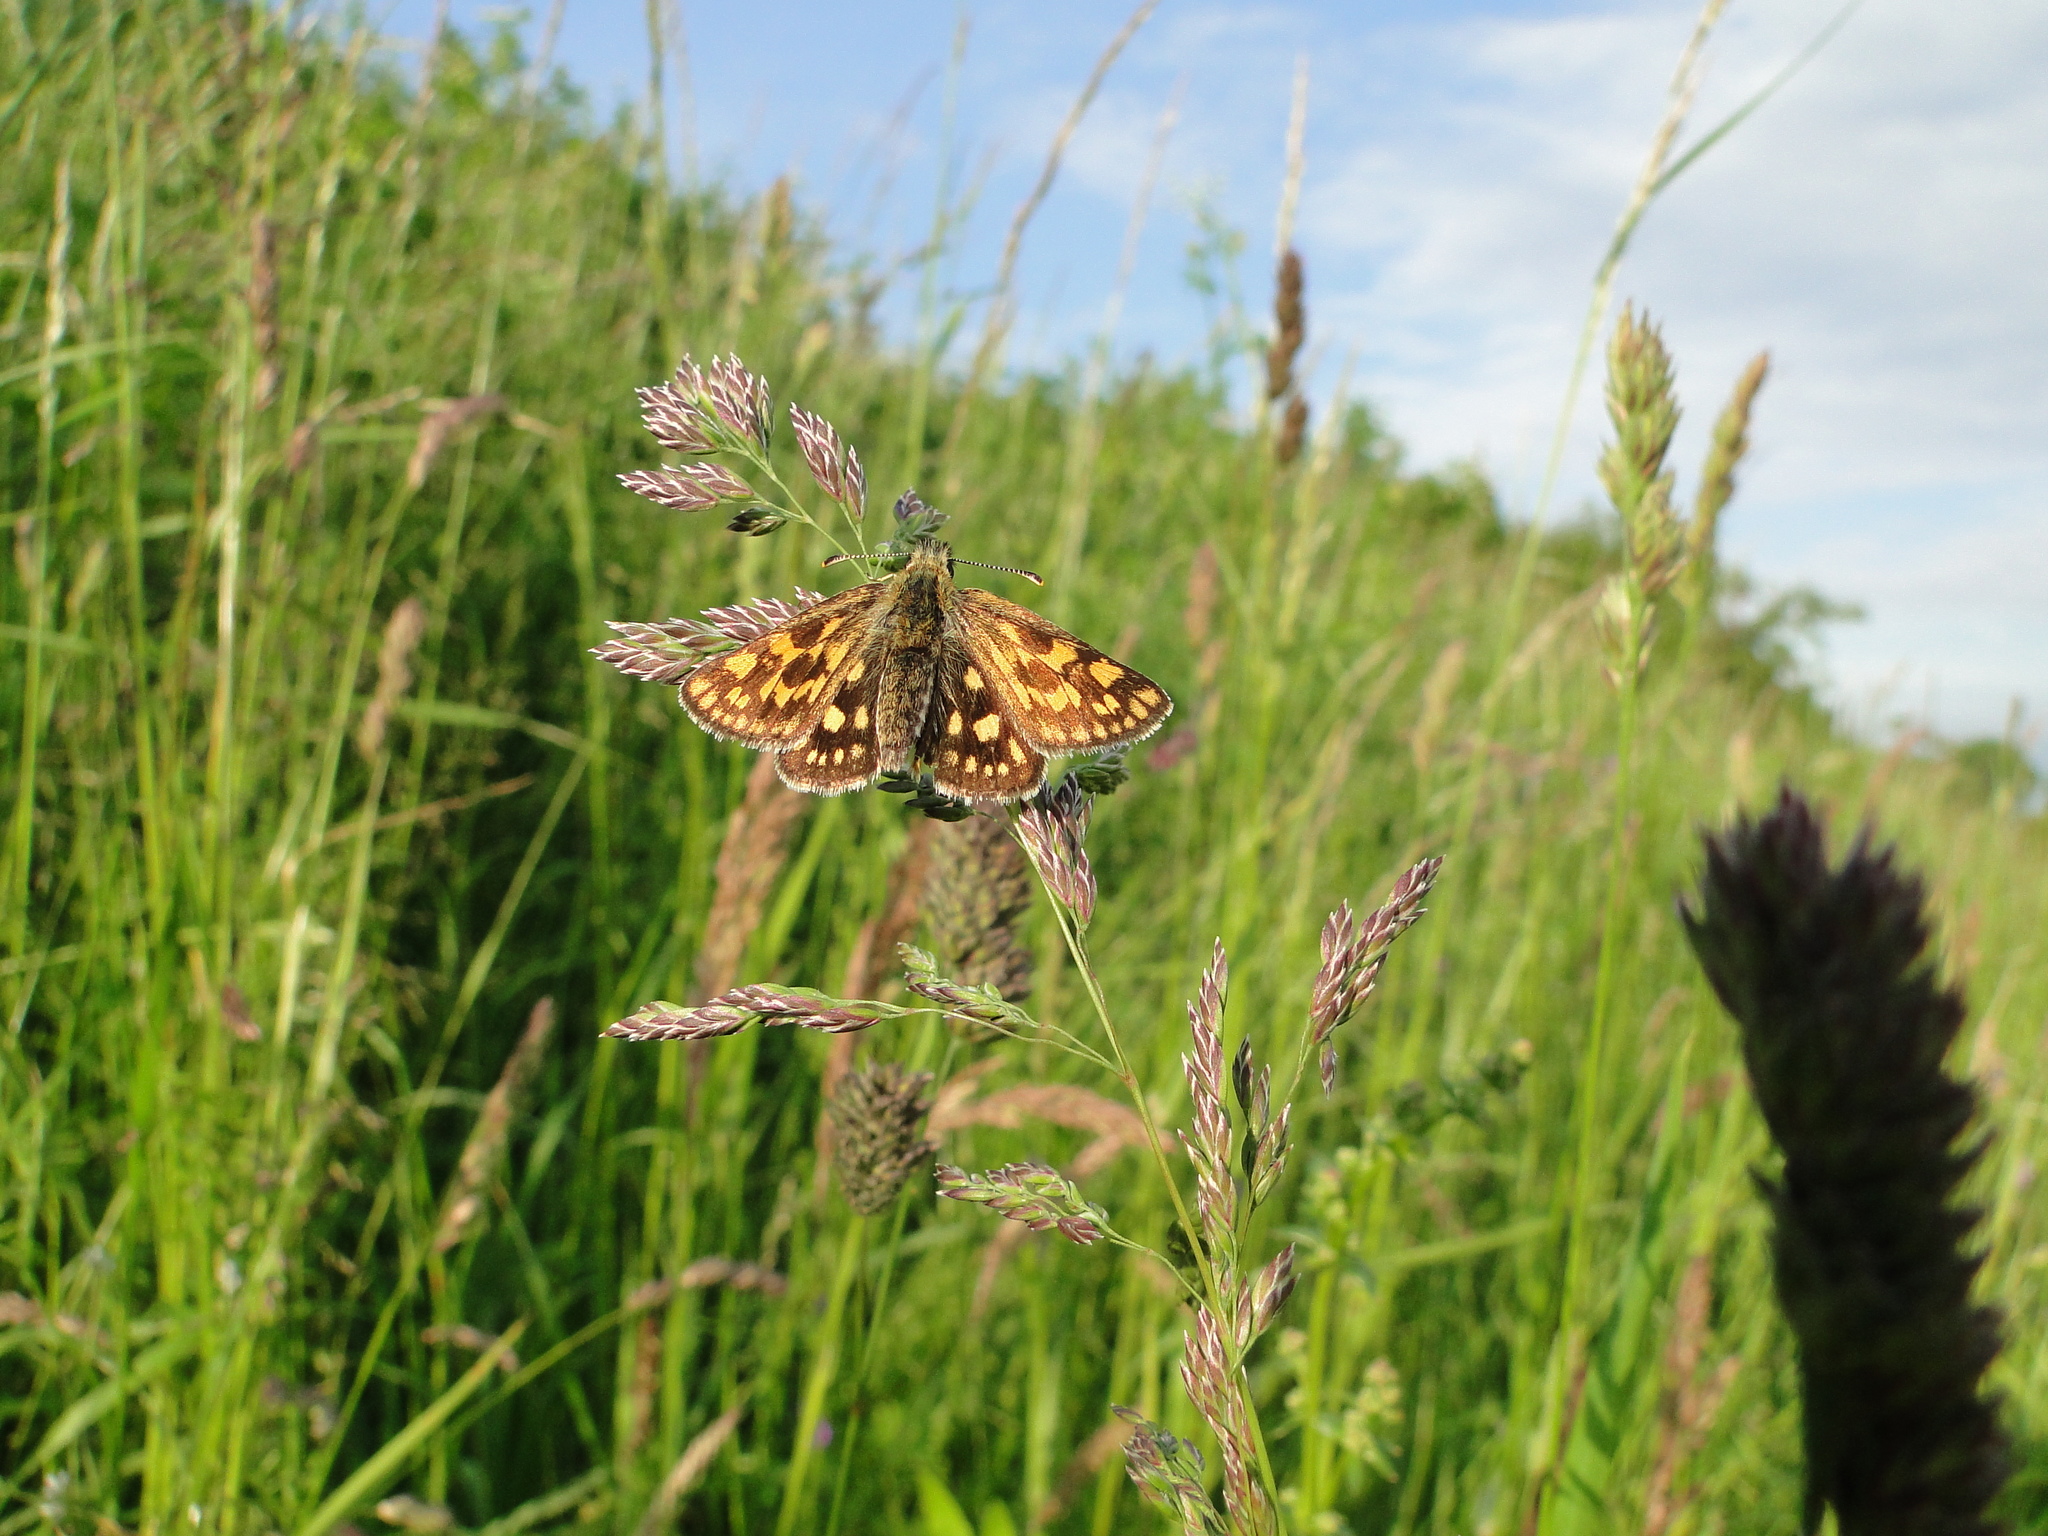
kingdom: Animalia
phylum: Arthropoda
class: Insecta
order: Lepidoptera
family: Hesperiidae
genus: Carterocephalus
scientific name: Carterocephalus palaemon
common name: Chequered skipper
